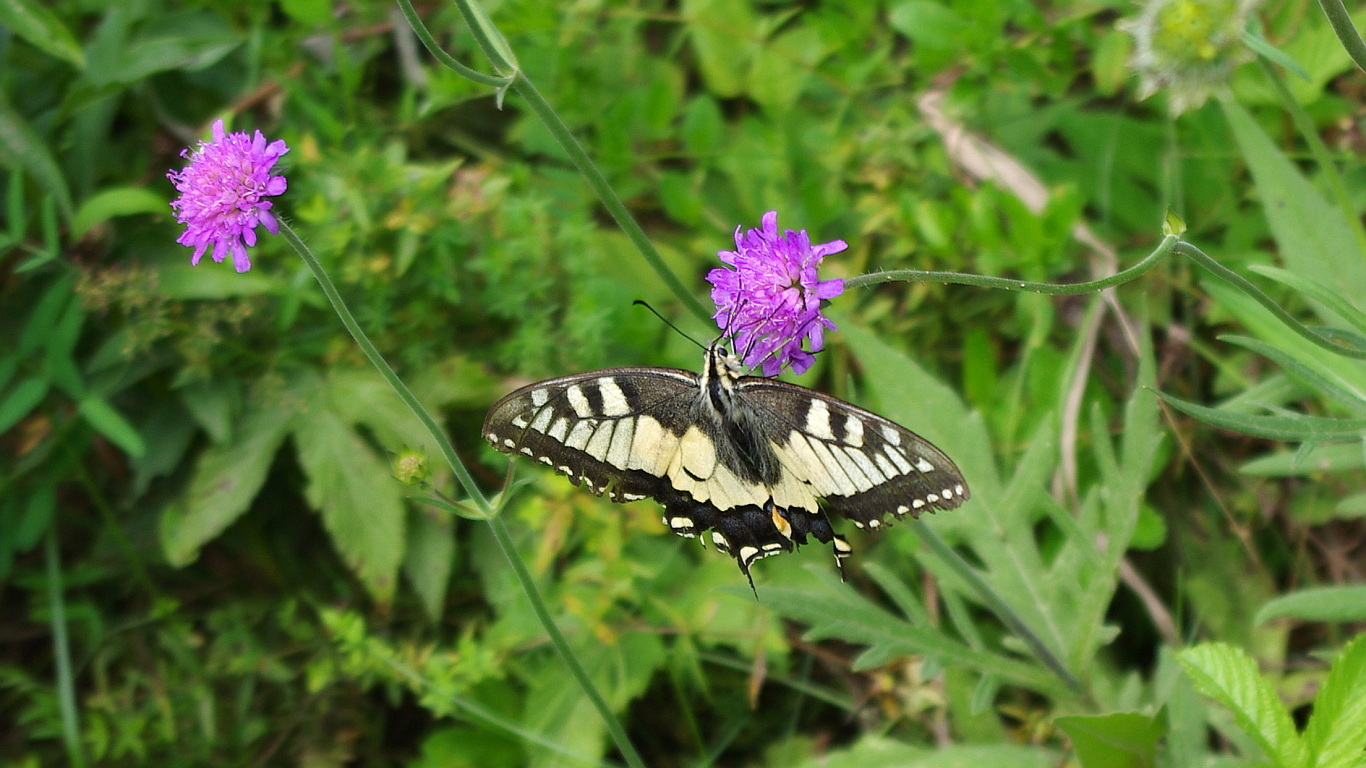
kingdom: Animalia
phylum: Arthropoda
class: Insecta
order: Lepidoptera
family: Papilionidae
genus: Papilio
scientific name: Papilio machaon
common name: Swallowtail
